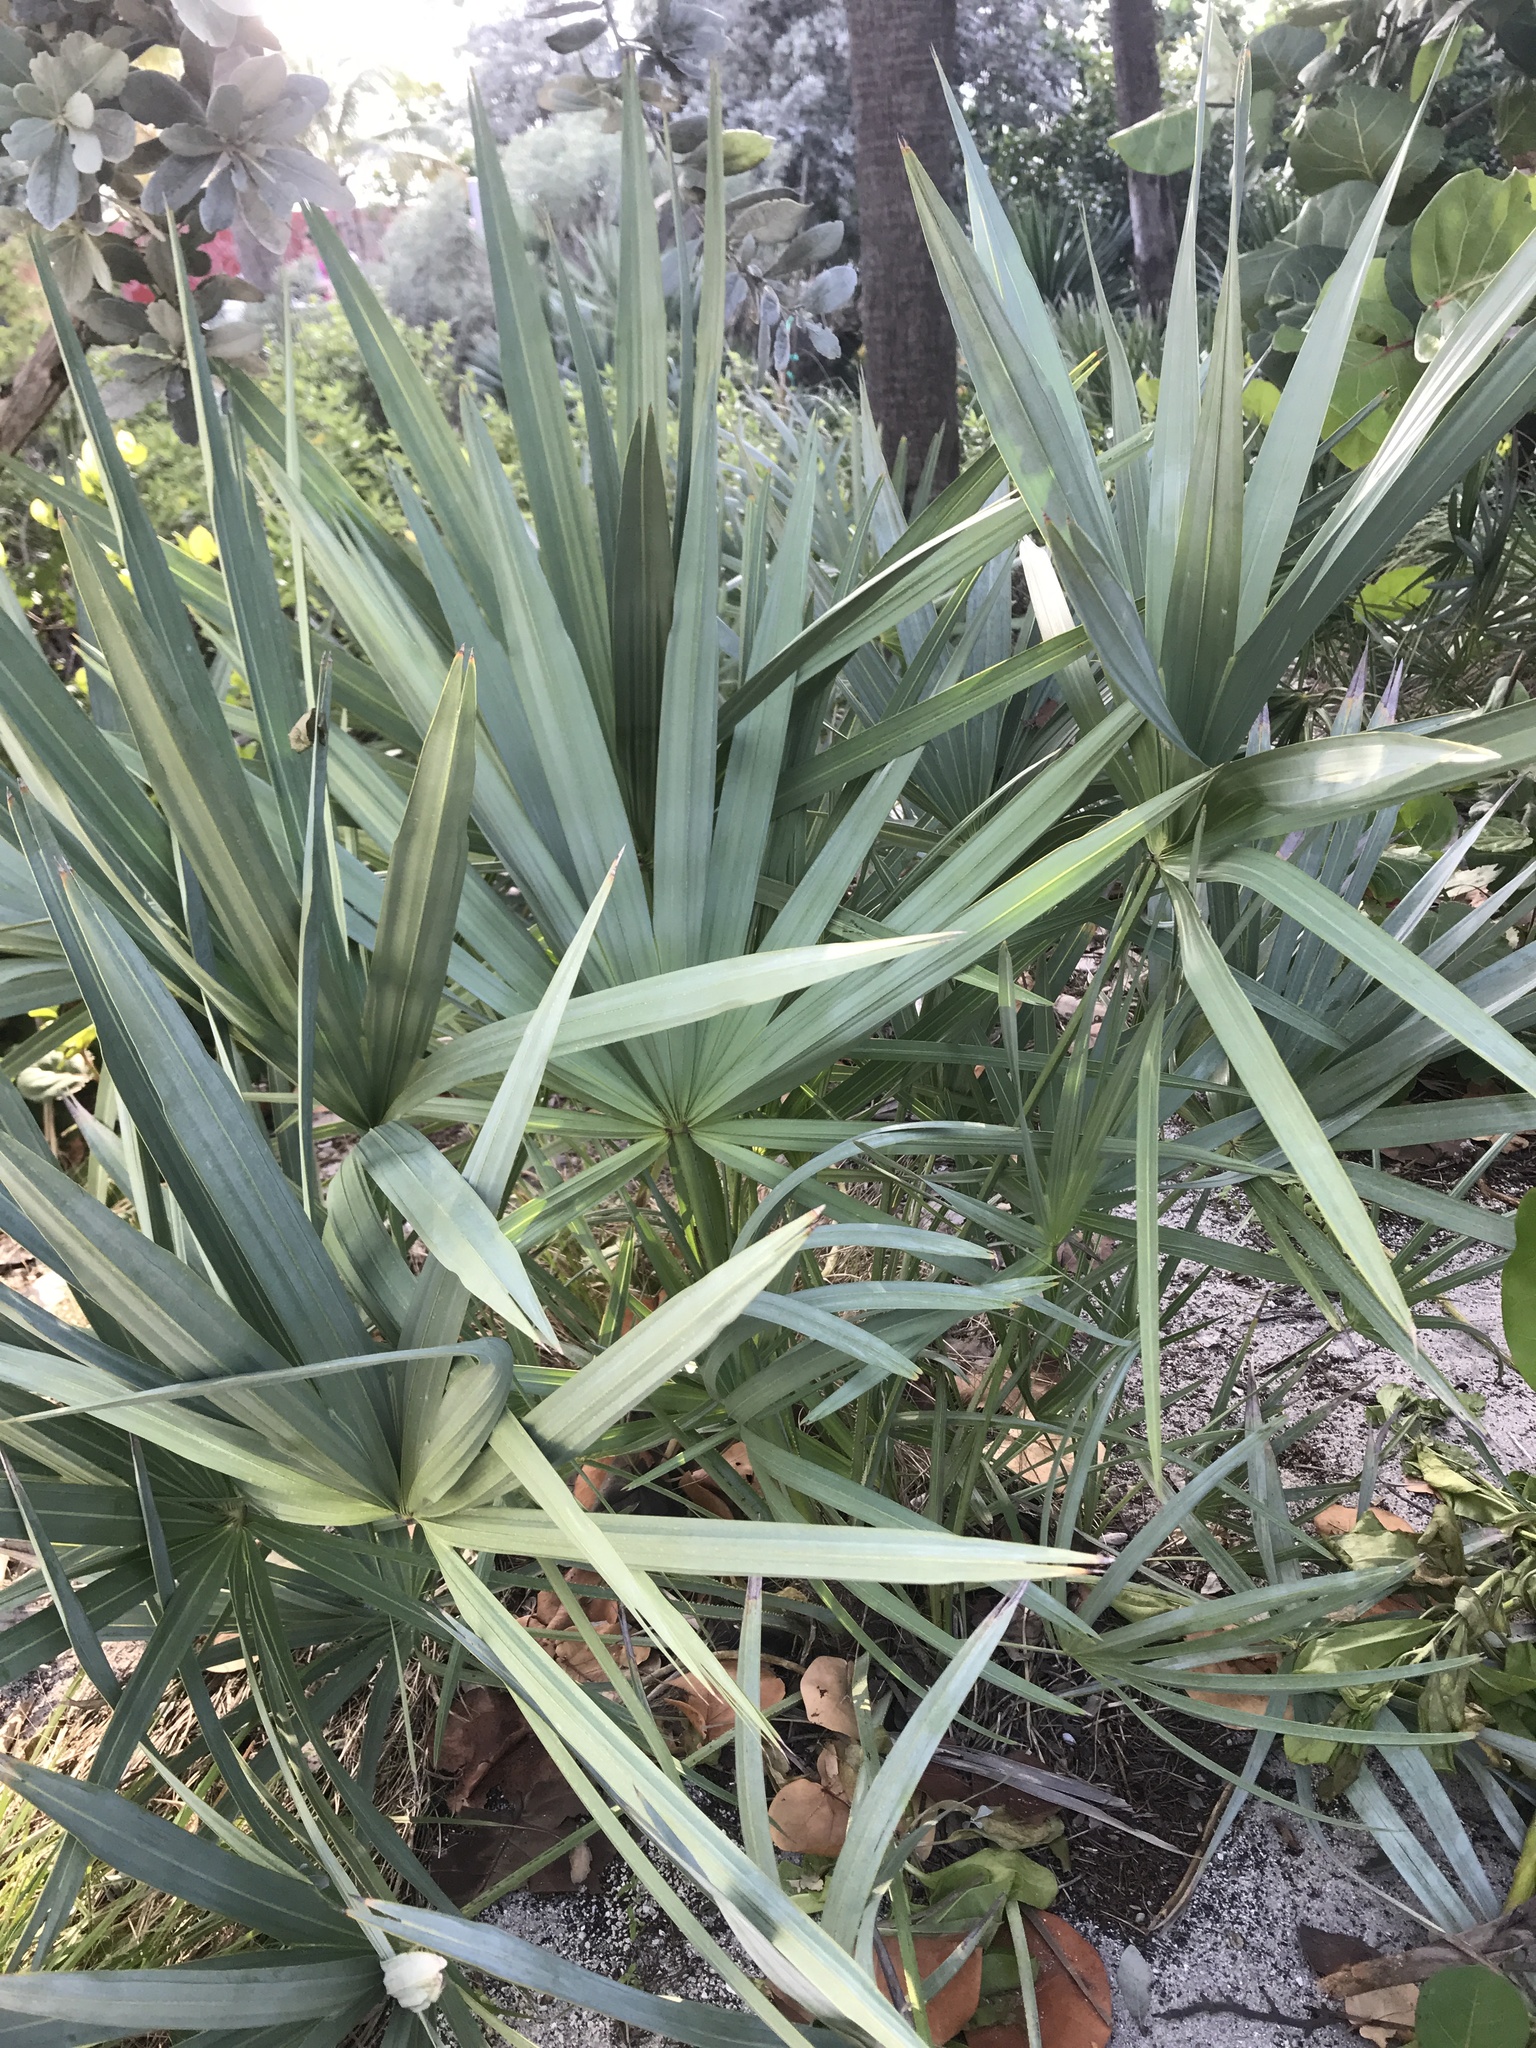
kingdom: Plantae
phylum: Tracheophyta
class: Liliopsida
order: Arecales
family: Arecaceae
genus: Serenoa
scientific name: Serenoa repens
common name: Saw-palmetto
